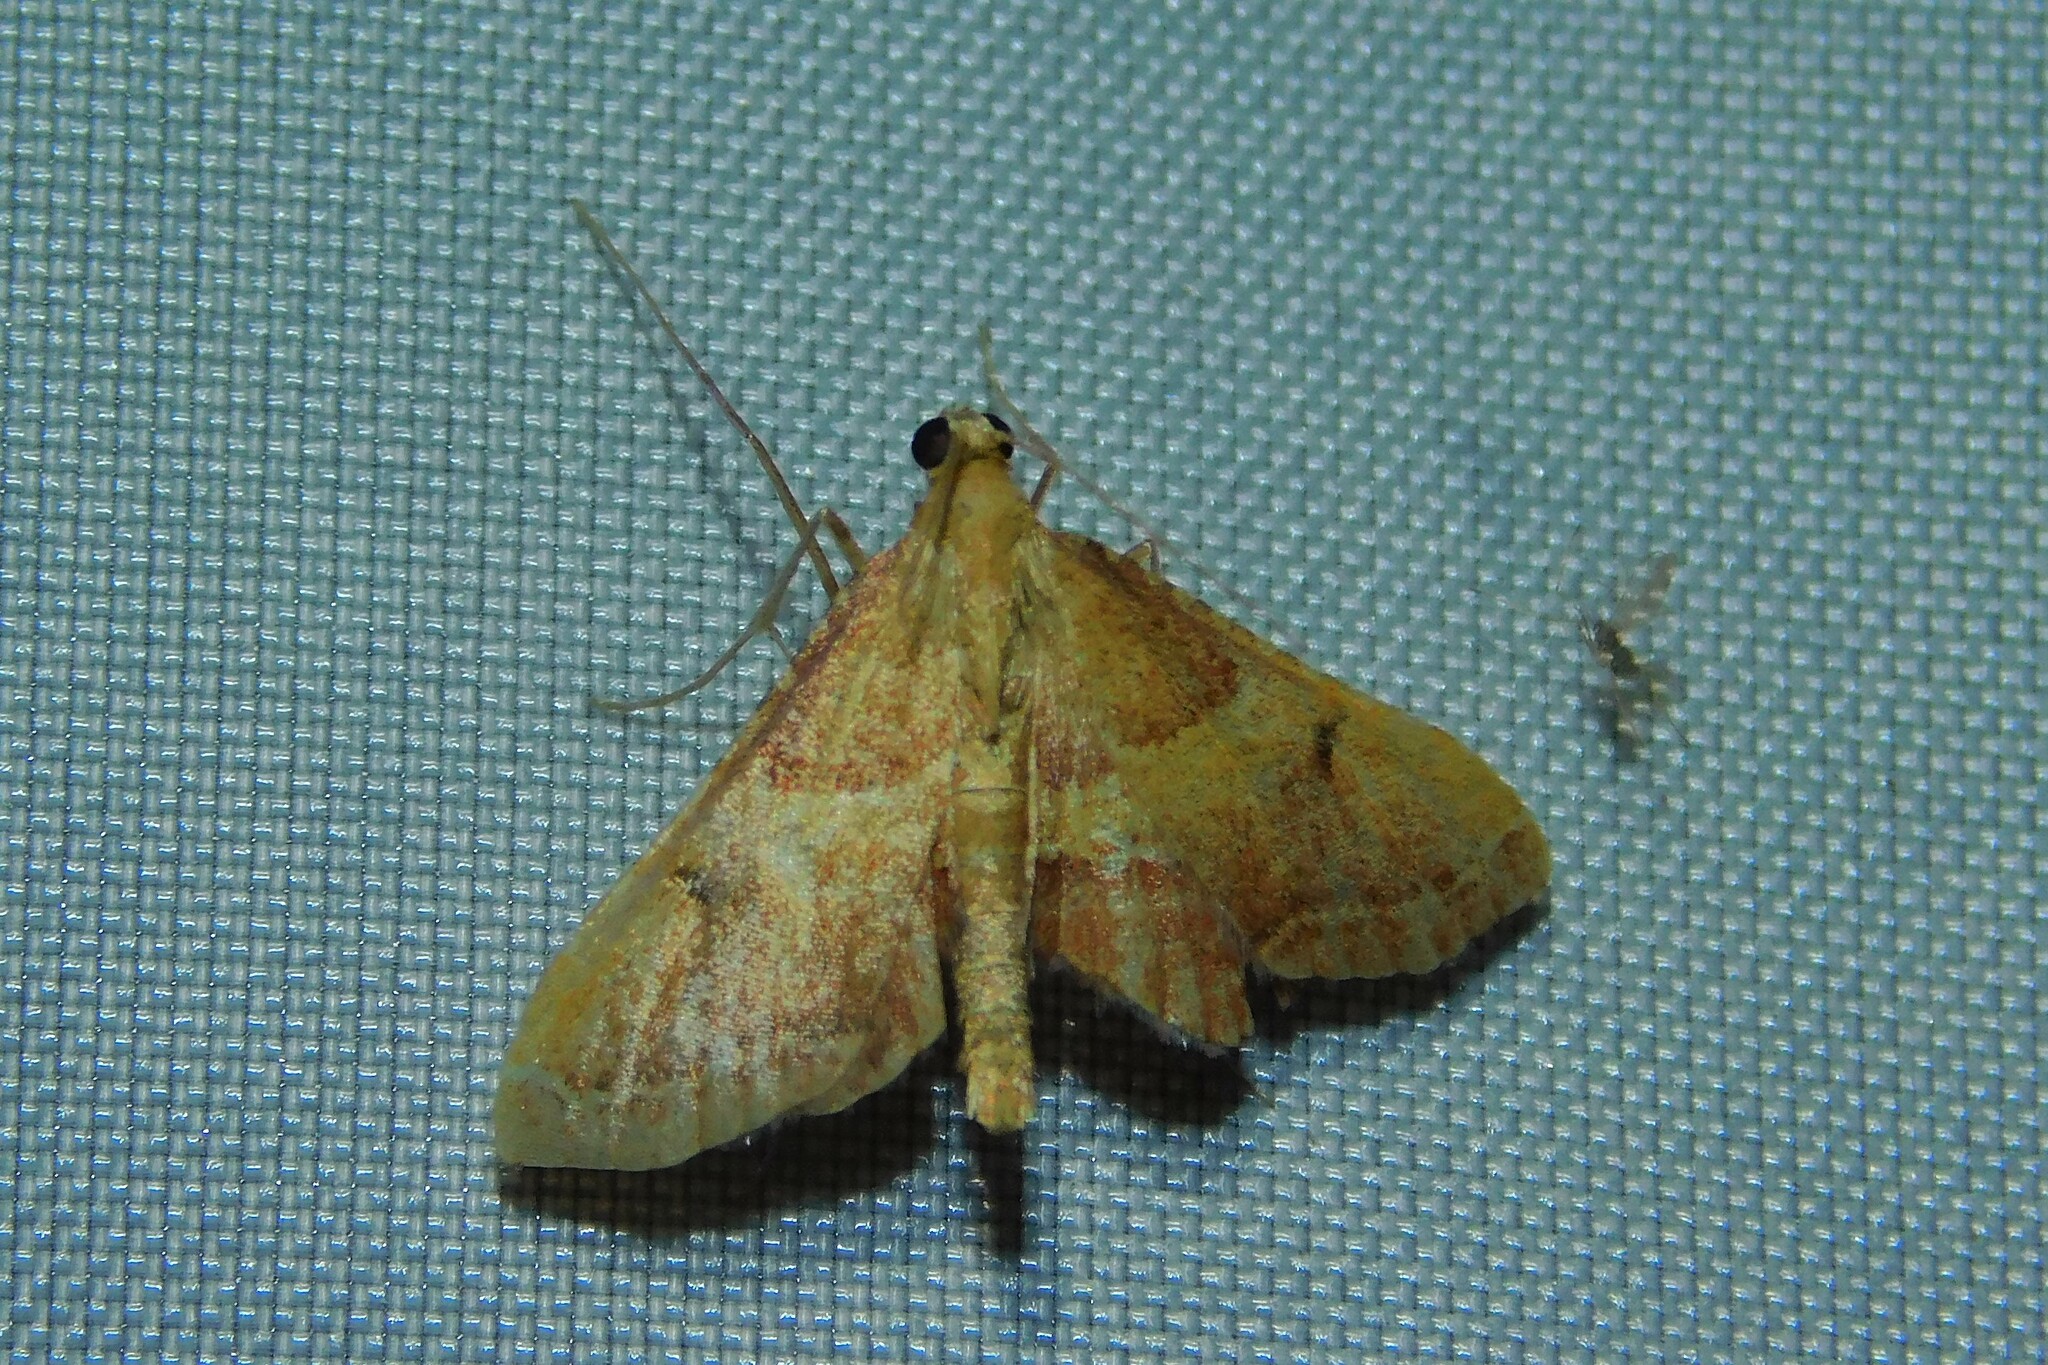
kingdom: Animalia
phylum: Arthropoda
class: Insecta
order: Lepidoptera
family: Pyralidae
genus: Endotricha
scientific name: Endotricha flammealis
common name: Rosy tabby
